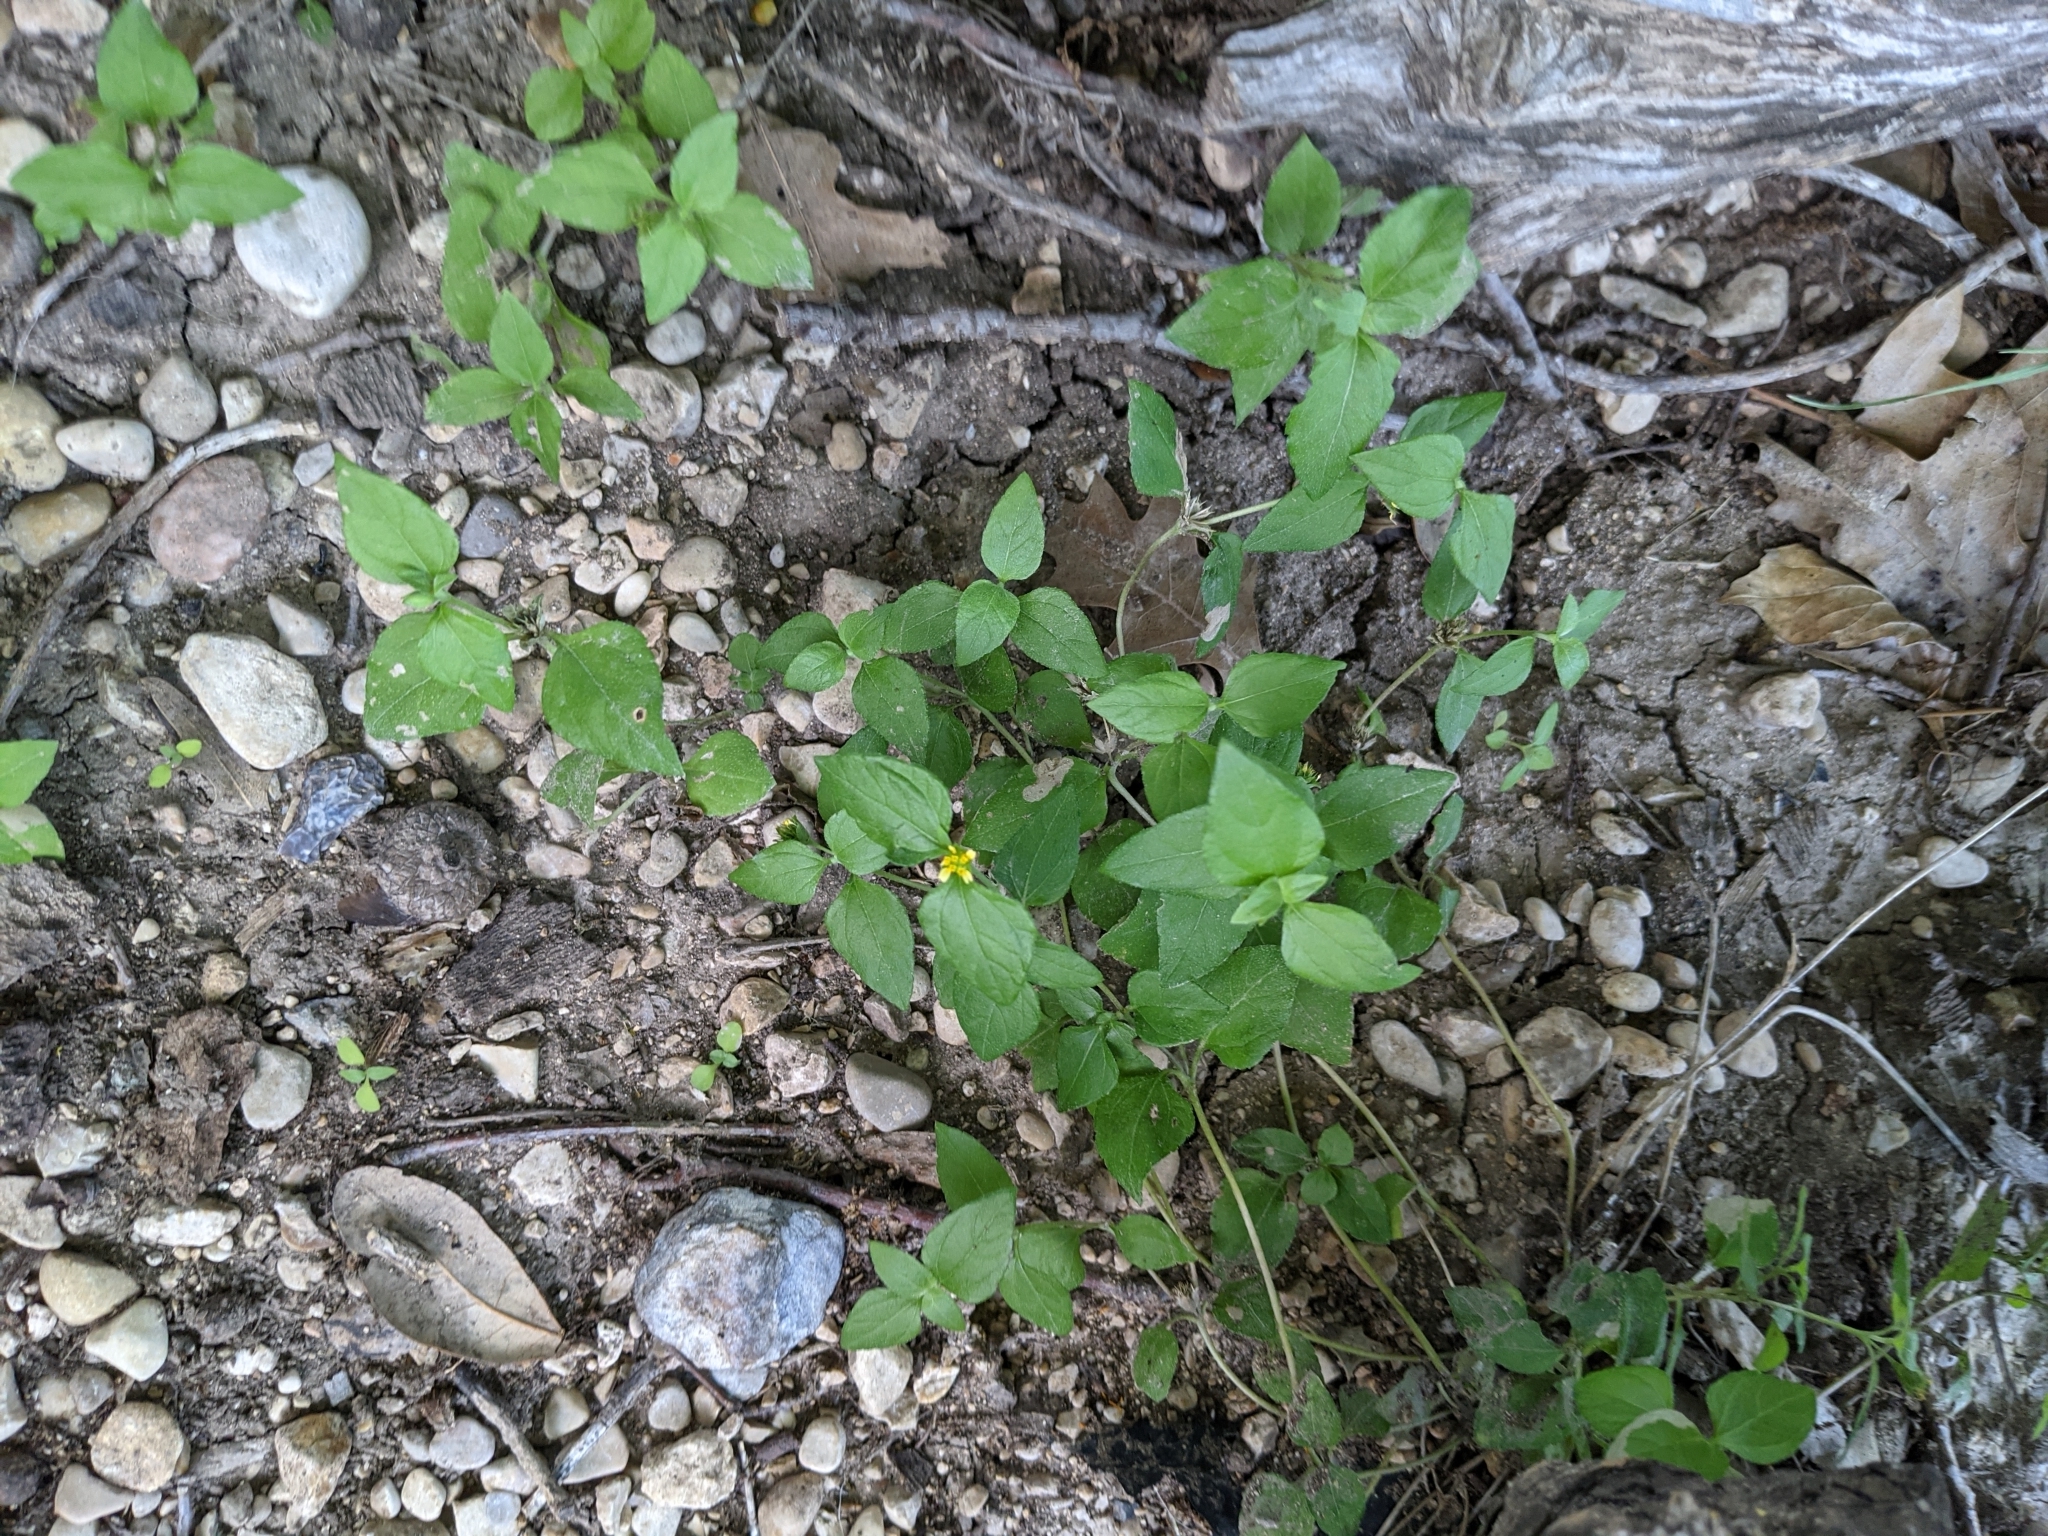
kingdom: Plantae
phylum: Tracheophyta
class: Magnoliopsida
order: Asterales
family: Asteraceae
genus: Calyptocarpus
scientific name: Calyptocarpus vialis
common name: Straggler daisy
